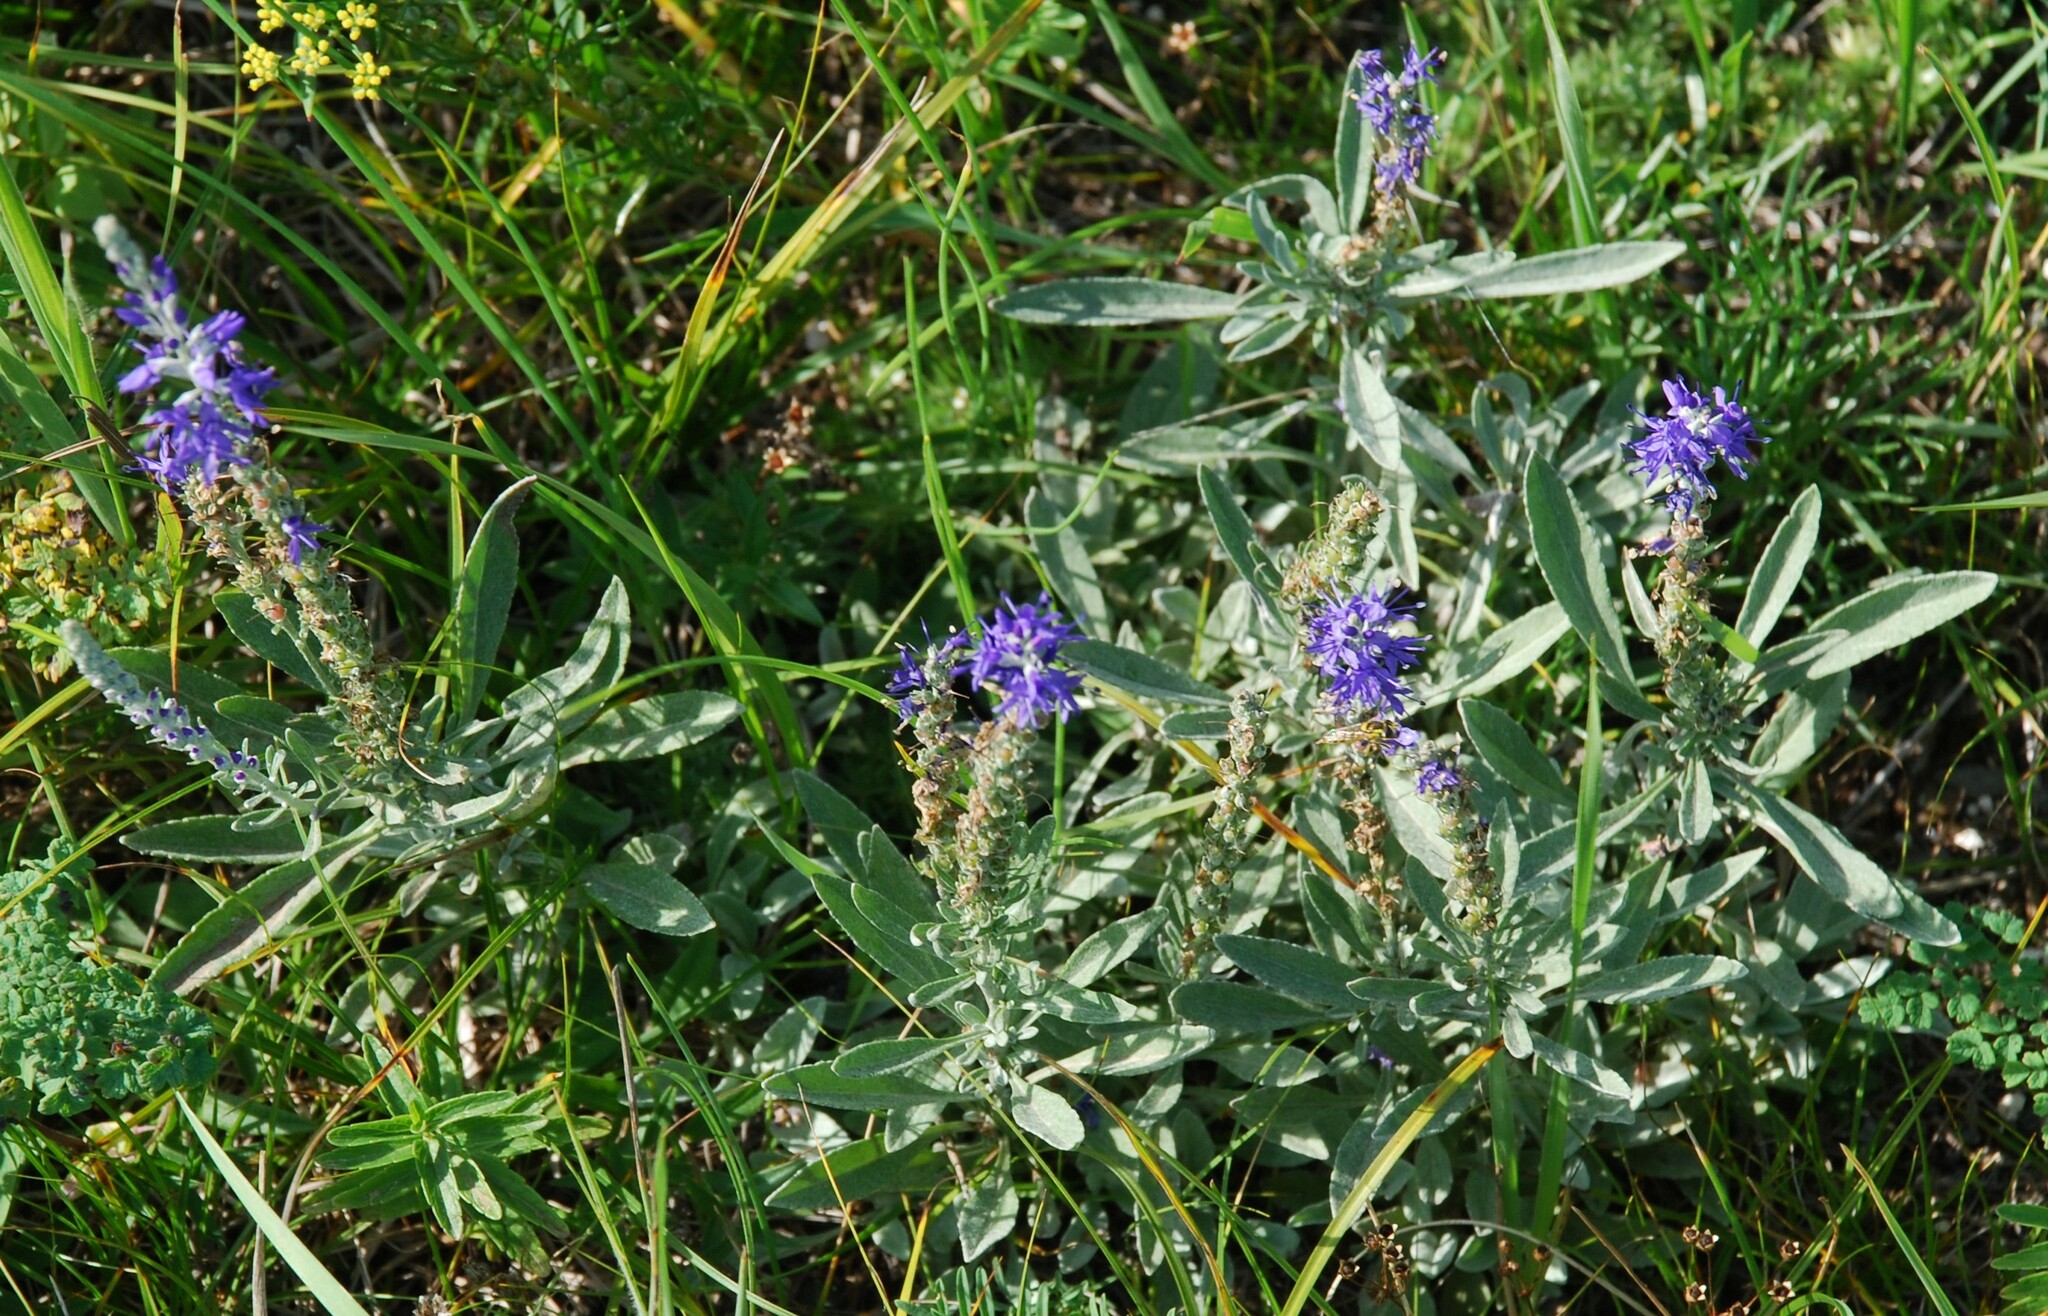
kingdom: Plantae
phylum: Tracheophyta
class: Magnoliopsida
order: Lamiales
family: Plantaginaceae
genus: Veronica
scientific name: Veronica incana
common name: Silver speedwell
